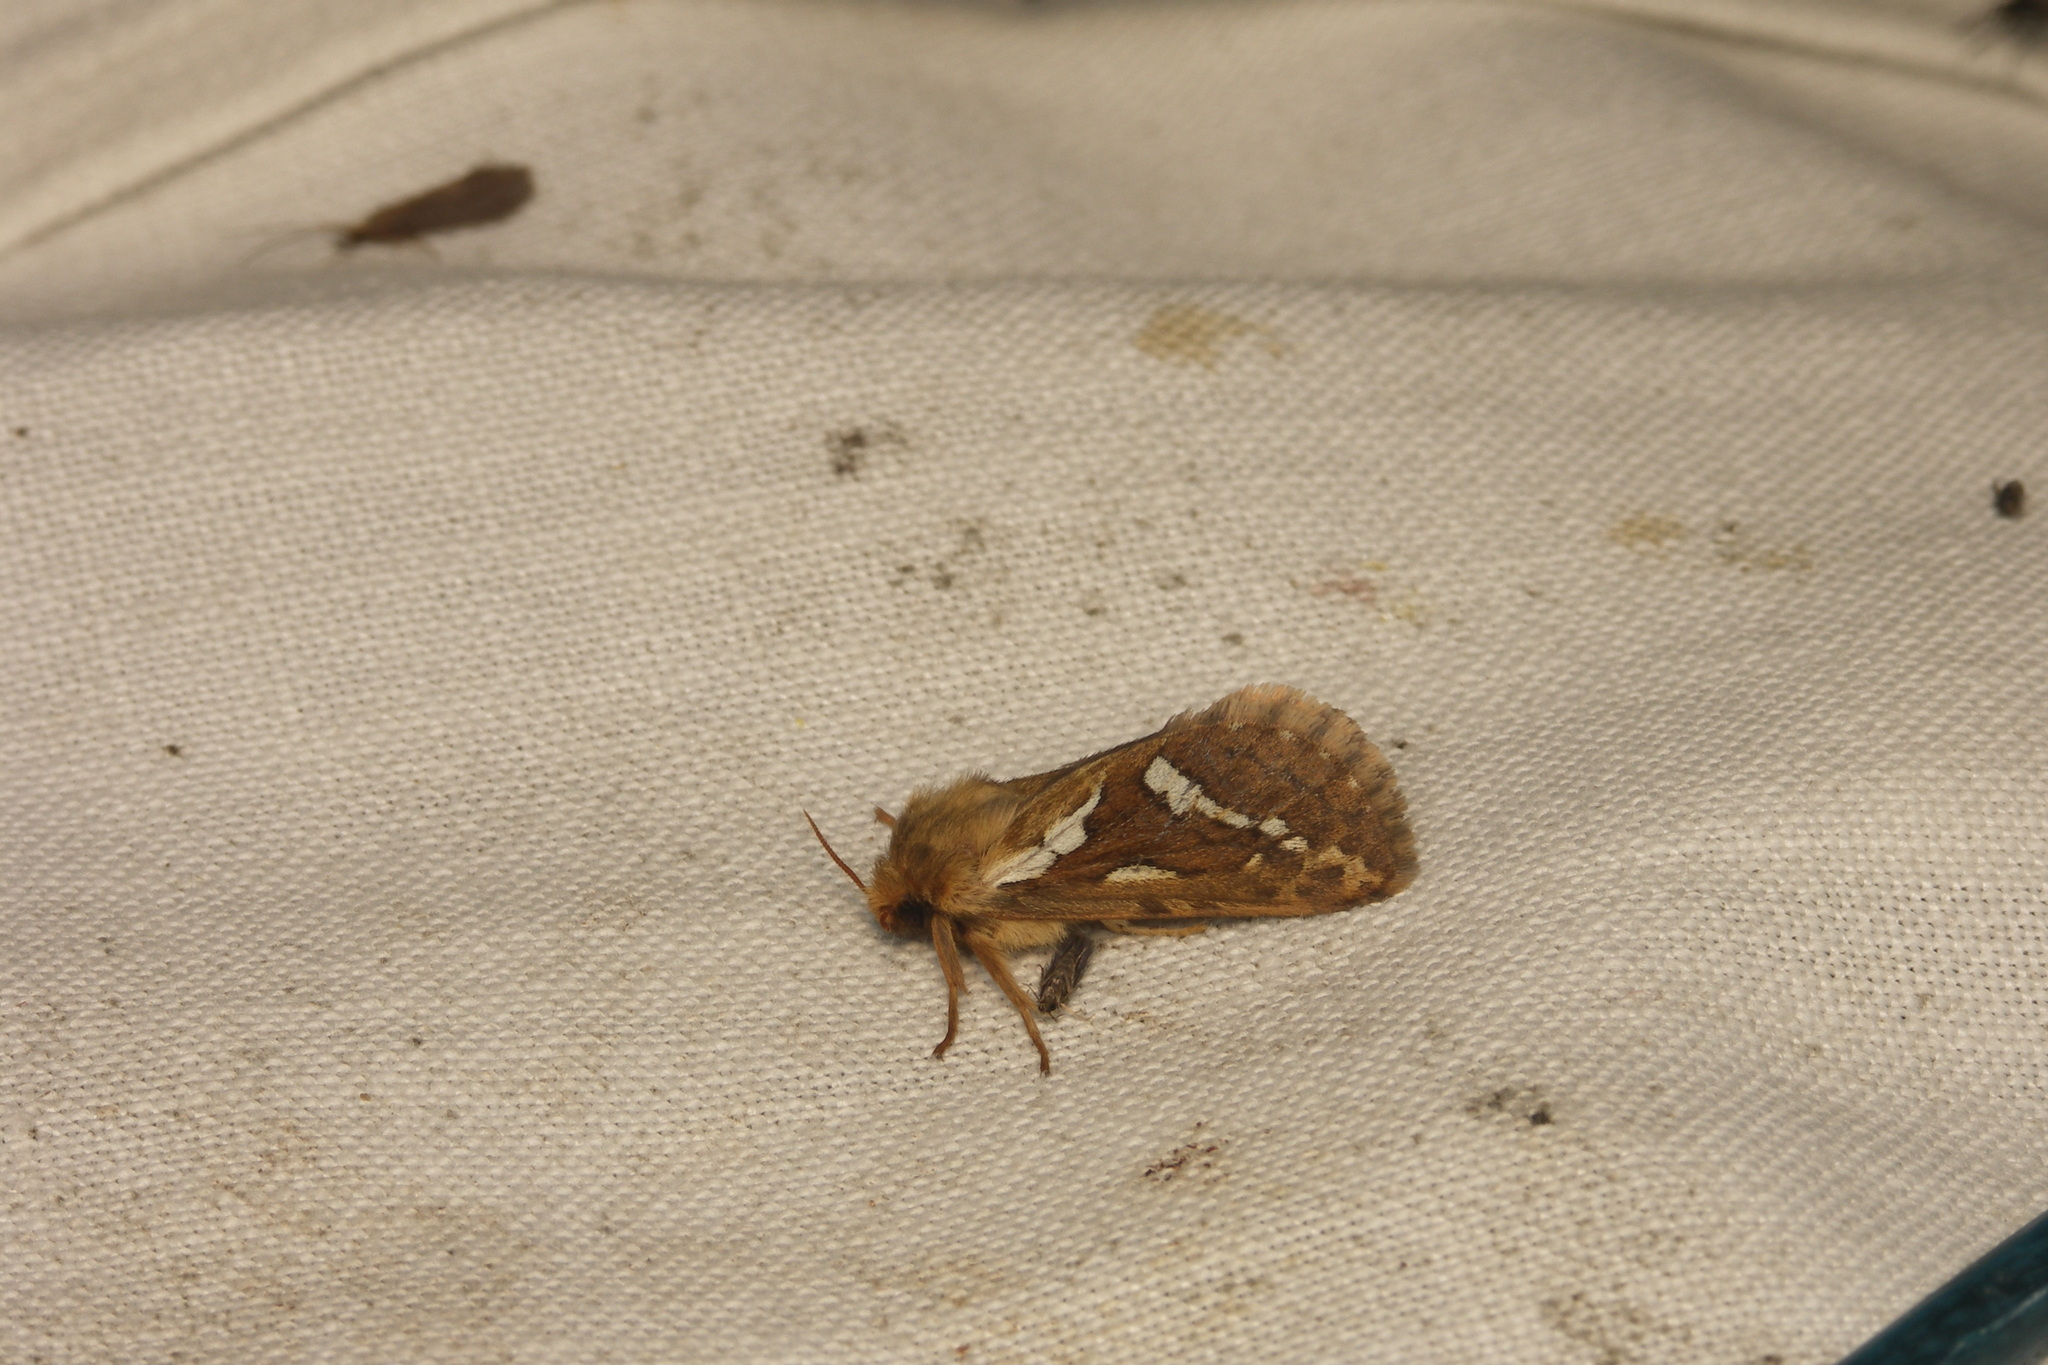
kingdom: Animalia
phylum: Arthropoda
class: Insecta
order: Lepidoptera
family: Hepialidae
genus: Korscheltellus
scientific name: Korscheltellus lupulina
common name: Common swift
